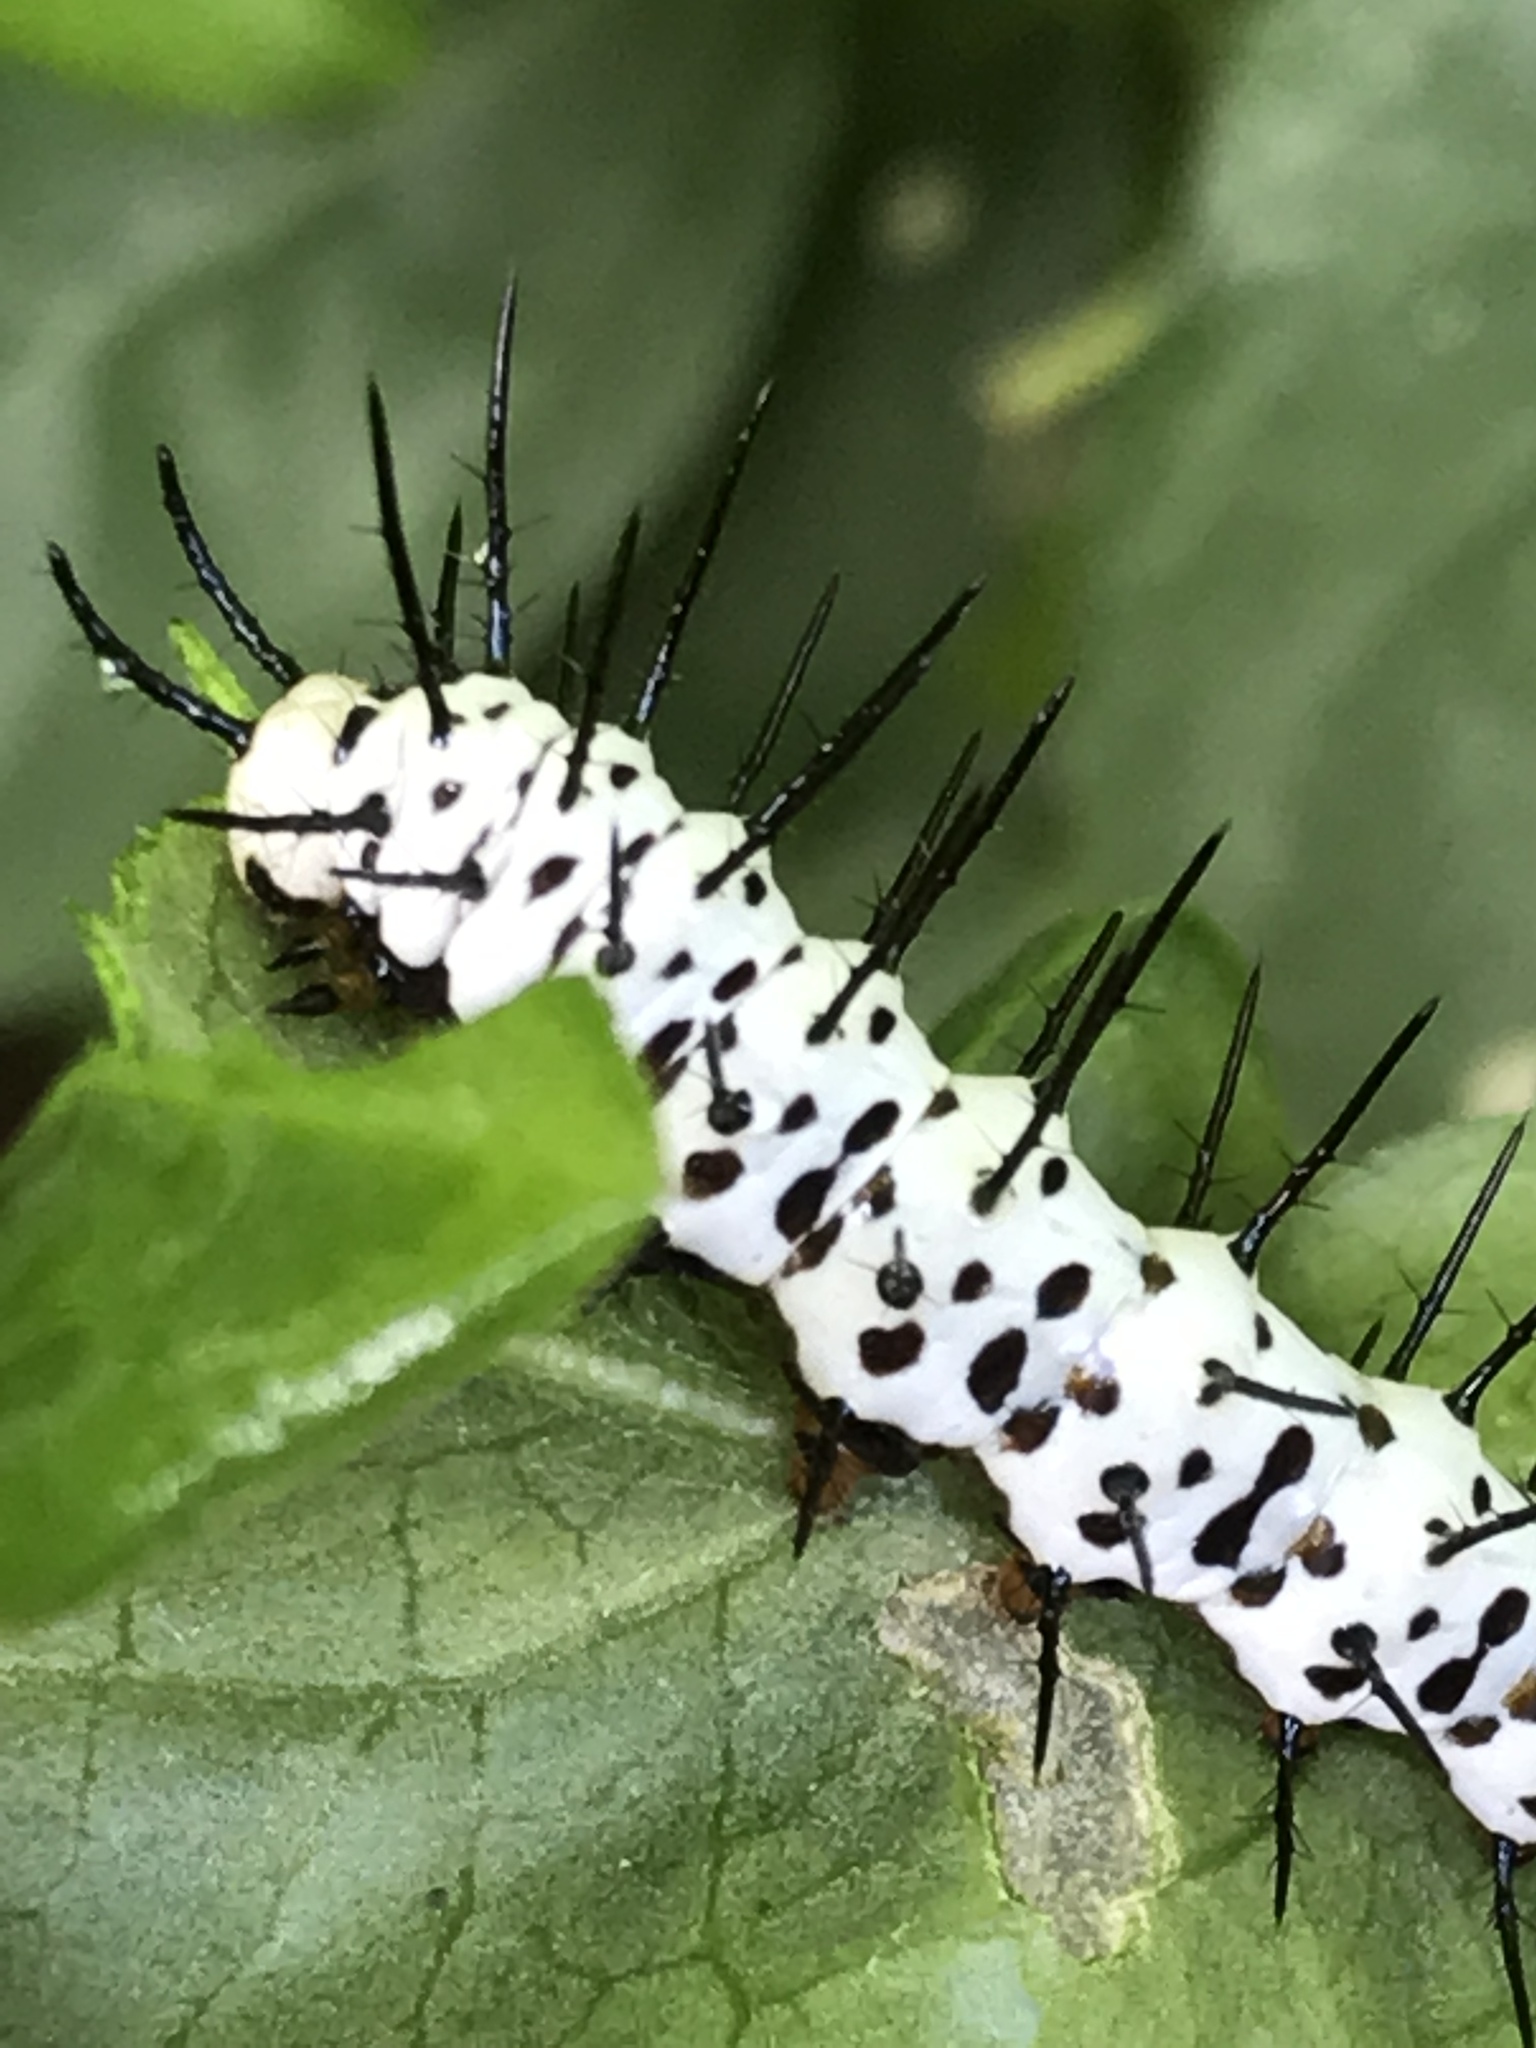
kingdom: Animalia
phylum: Arthropoda
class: Insecta
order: Lepidoptera
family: Nymphalidae
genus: Heliconius
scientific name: Heliconius charithonia
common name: Zebra long wing
